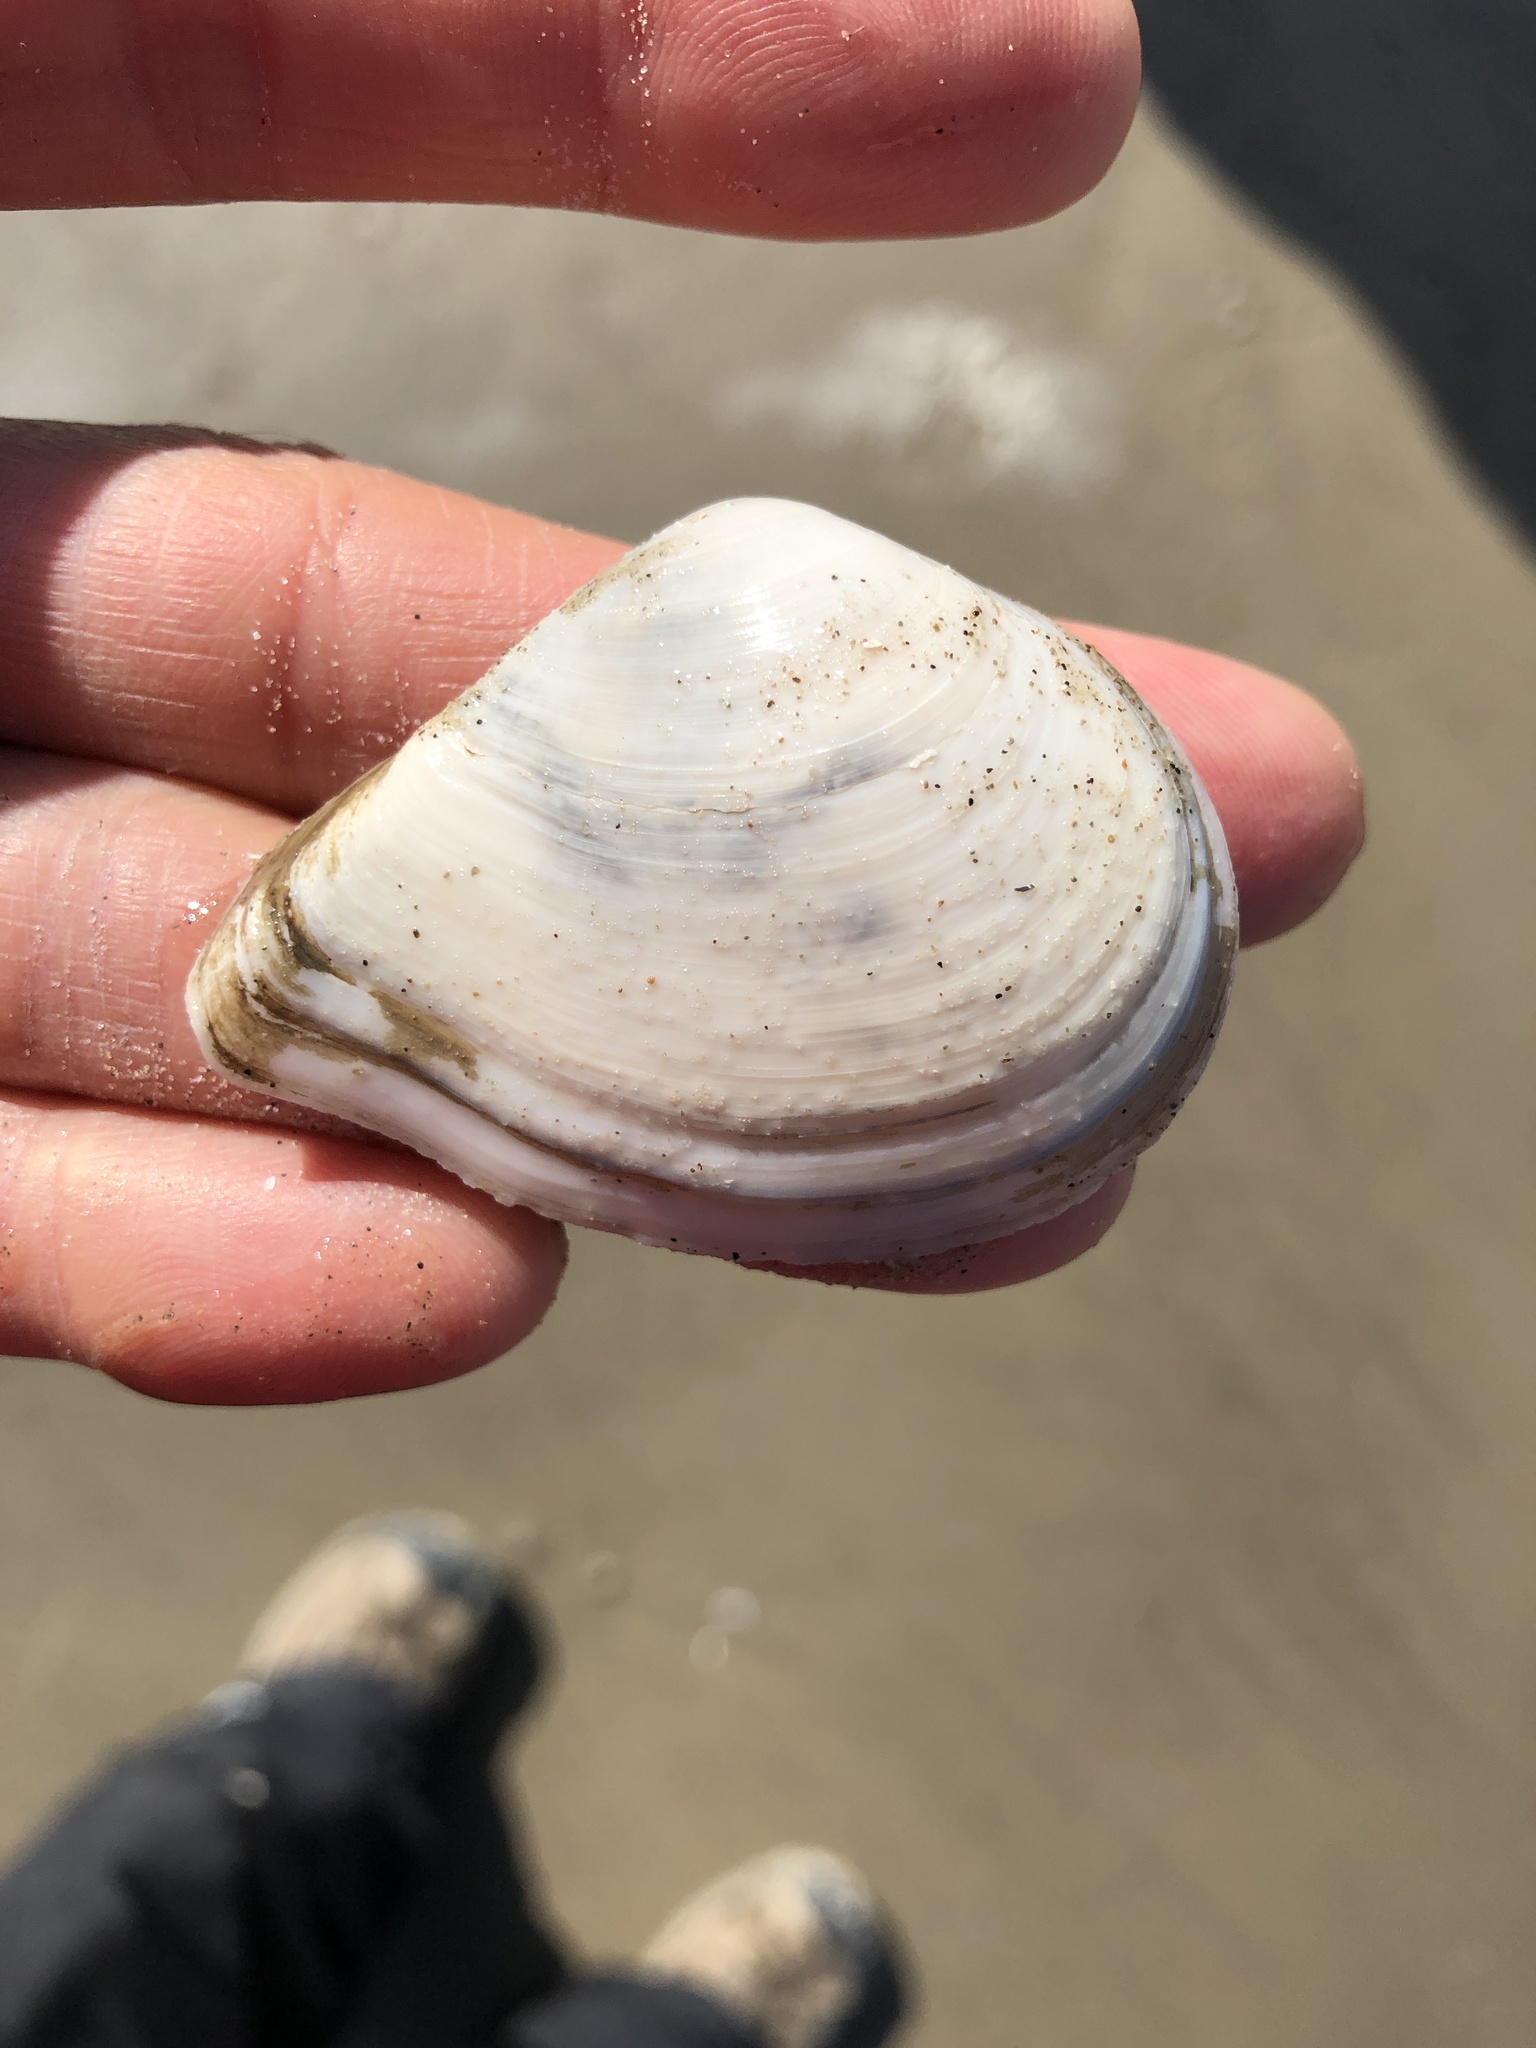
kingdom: Animalia
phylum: Mollusca
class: Bivalvia
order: Cardiida
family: Tellinidae
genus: Austromacoma
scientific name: Austromacoma constricta
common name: Constricted macoma
